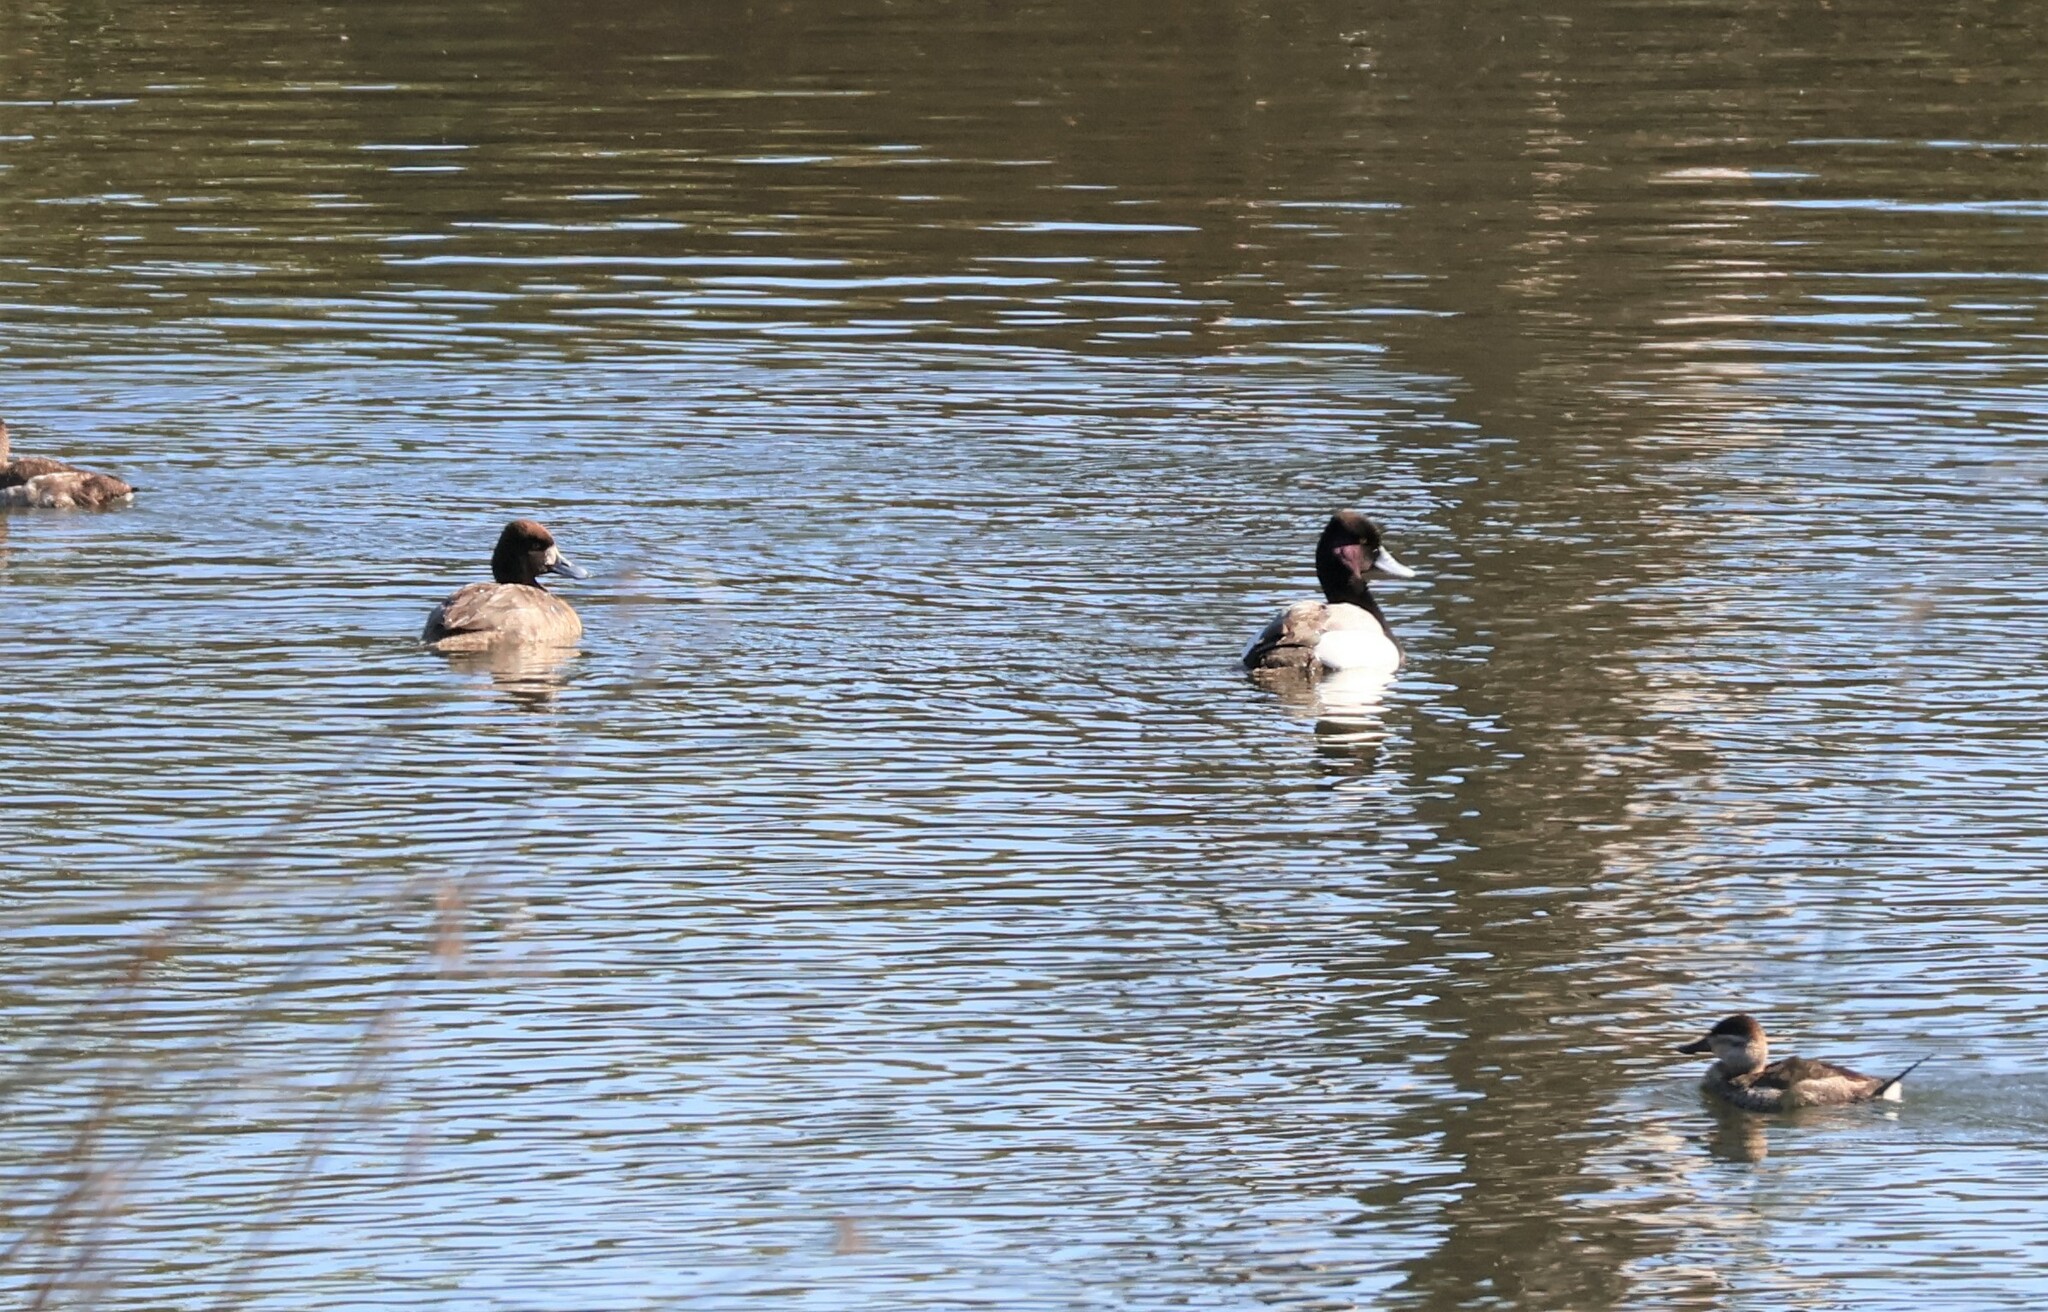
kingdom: Animalia
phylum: Chordata
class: Aves
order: Anseriformes
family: Anatidae
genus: Aythya
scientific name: Aythya affinis
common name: Lesser scaup
